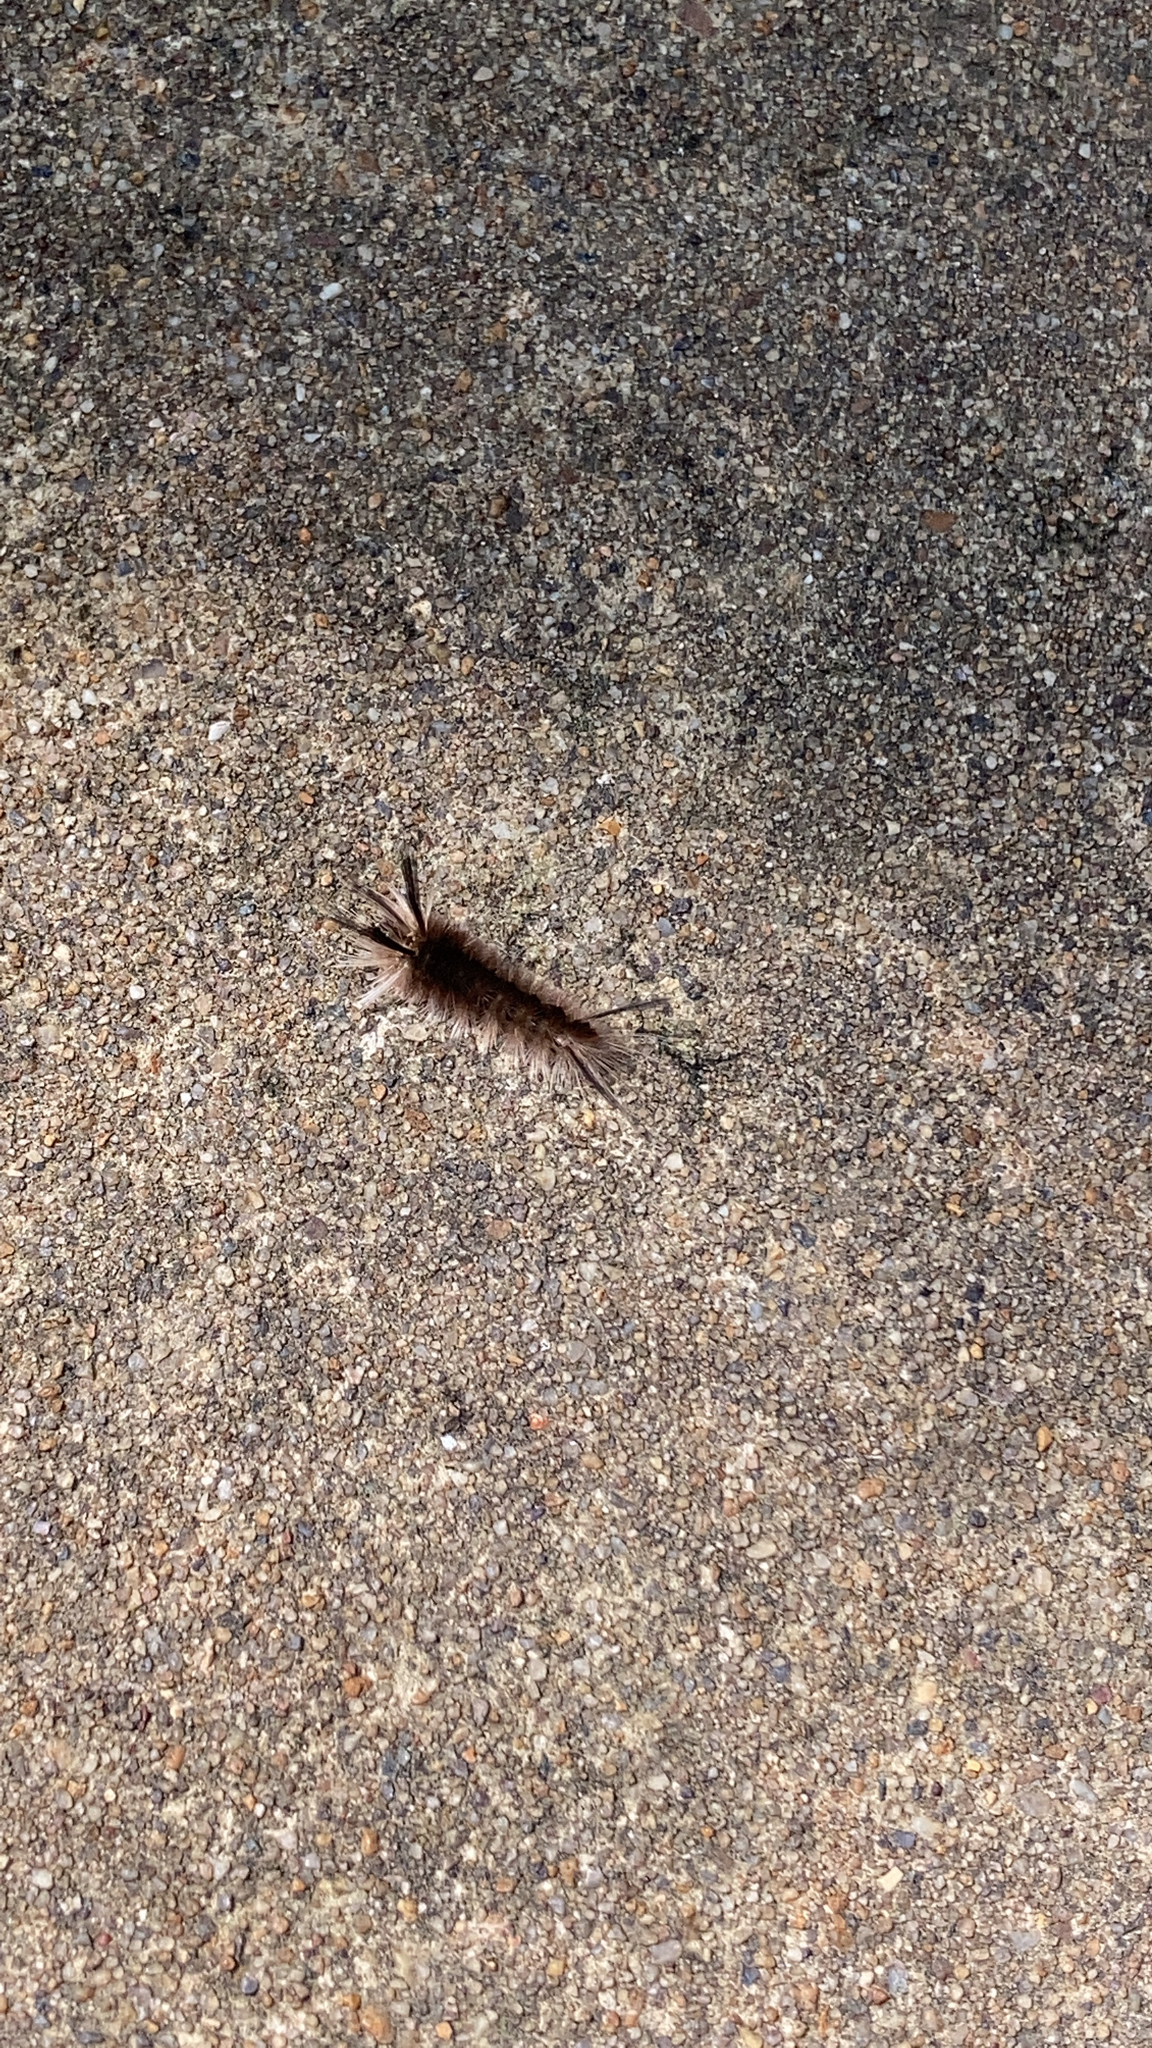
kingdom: Animalia
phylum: Arthropoda
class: Insecta
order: Lepidoptera
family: Erebidae
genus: Halysidota
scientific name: Halysidota tessellaris
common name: Banded tussock moth
